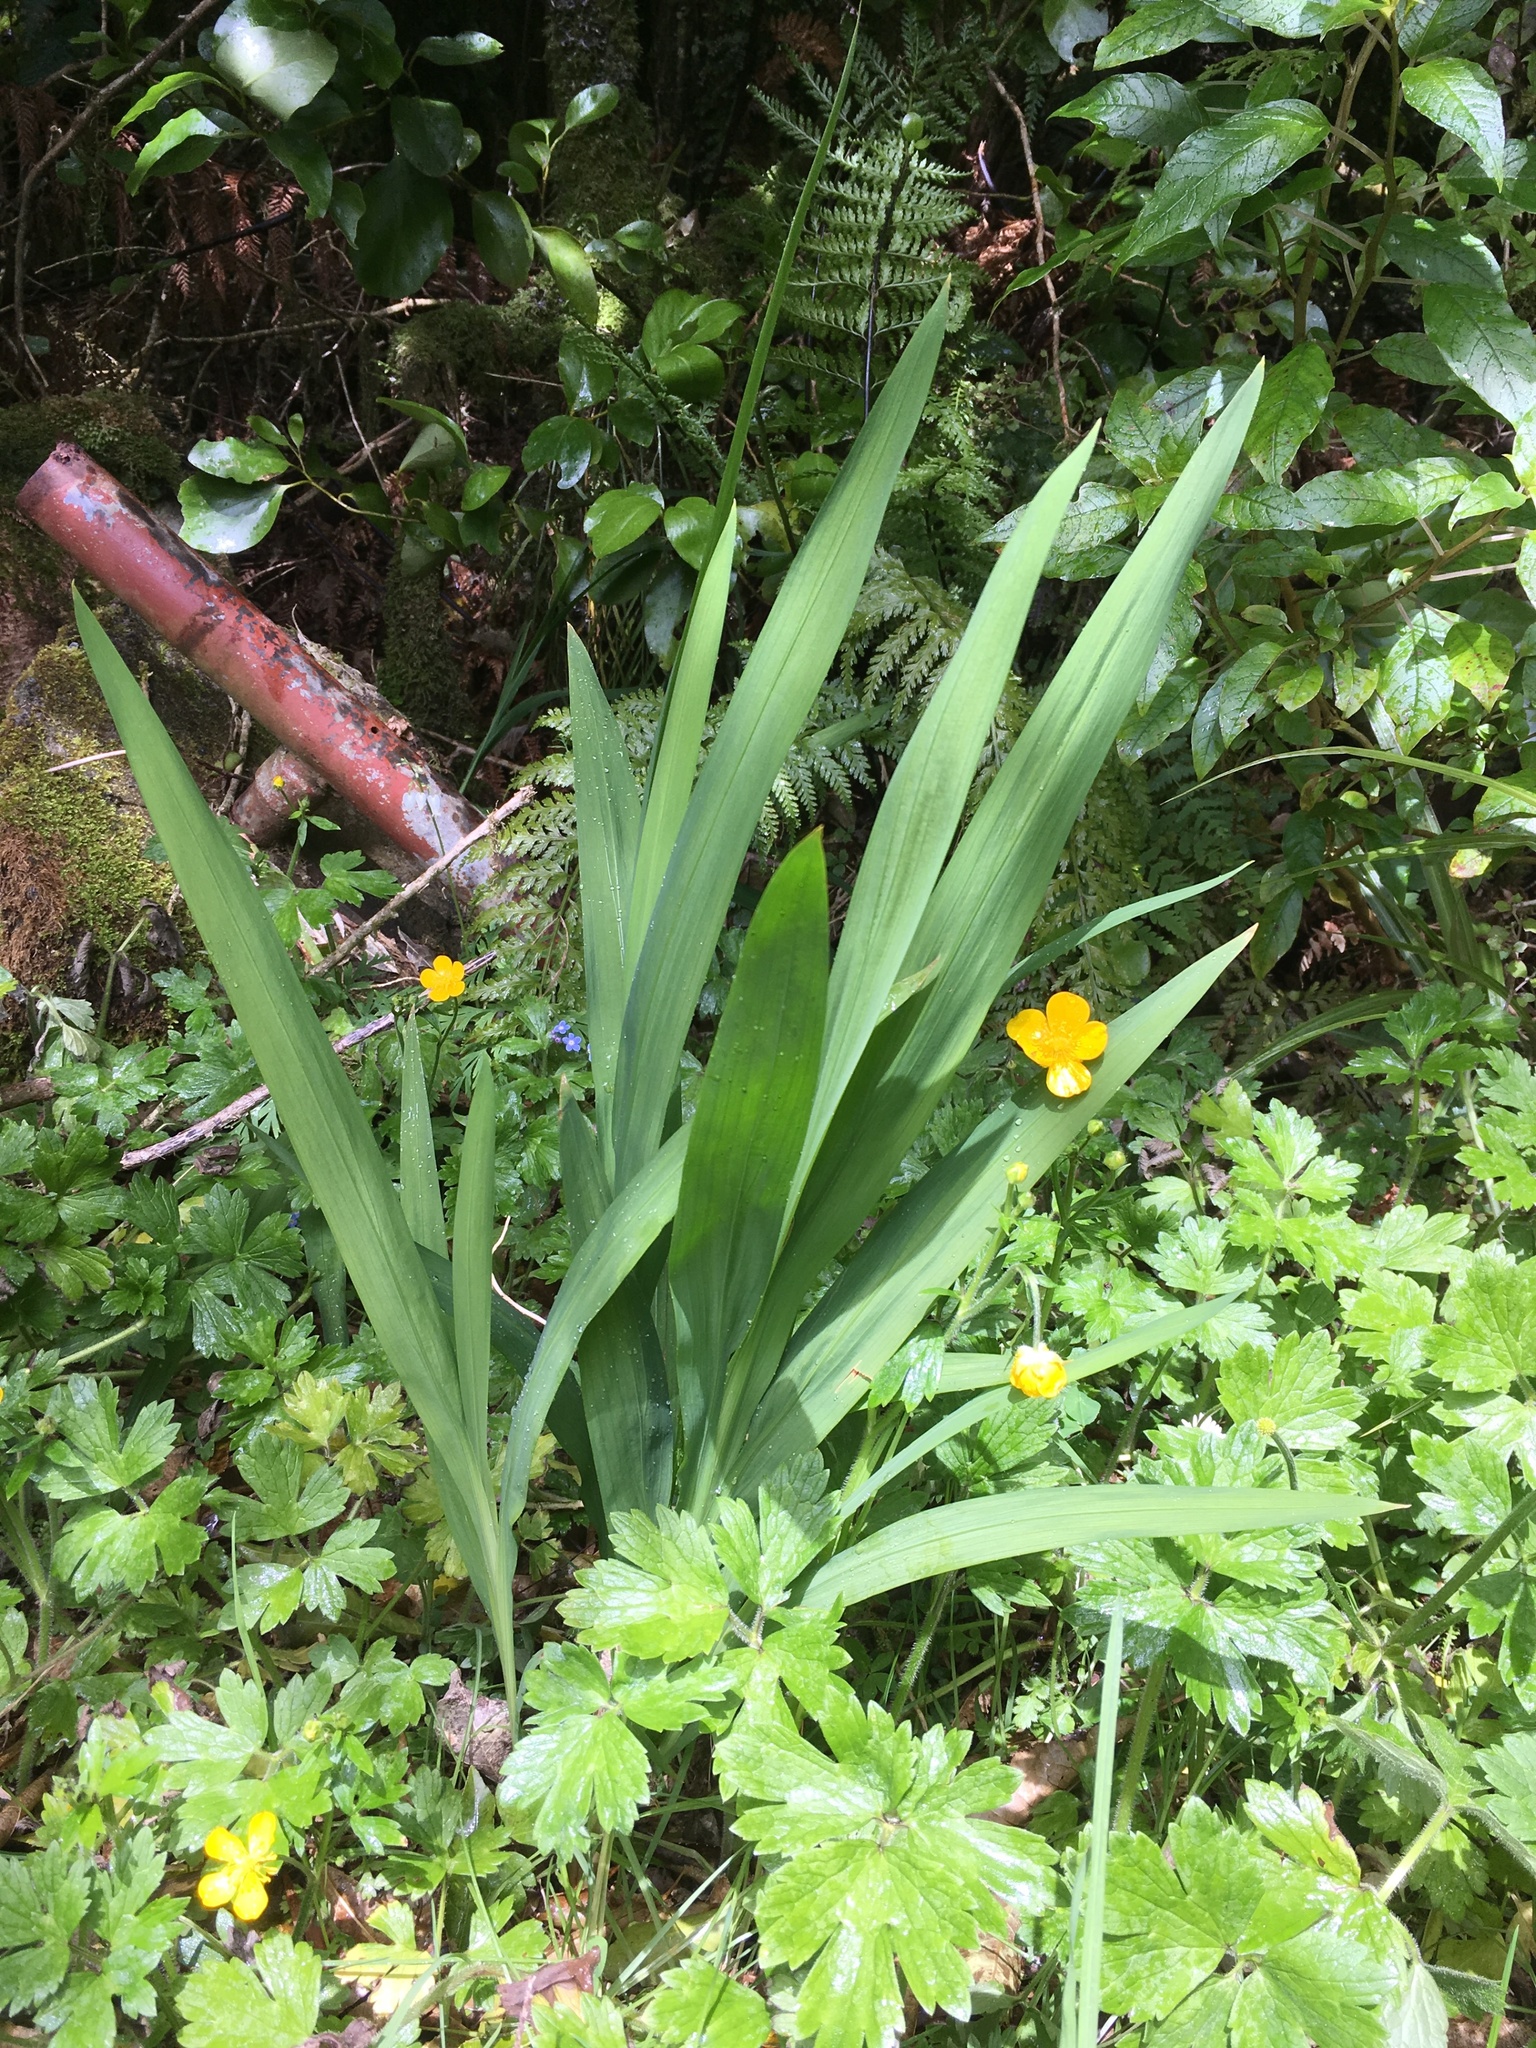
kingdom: Plantae
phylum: Tracheophyta
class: Liliopsida
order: Asparagales
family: Iridaceae
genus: Crocosmia
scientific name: Crocosmia crocosmiiflora
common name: Montbretia
